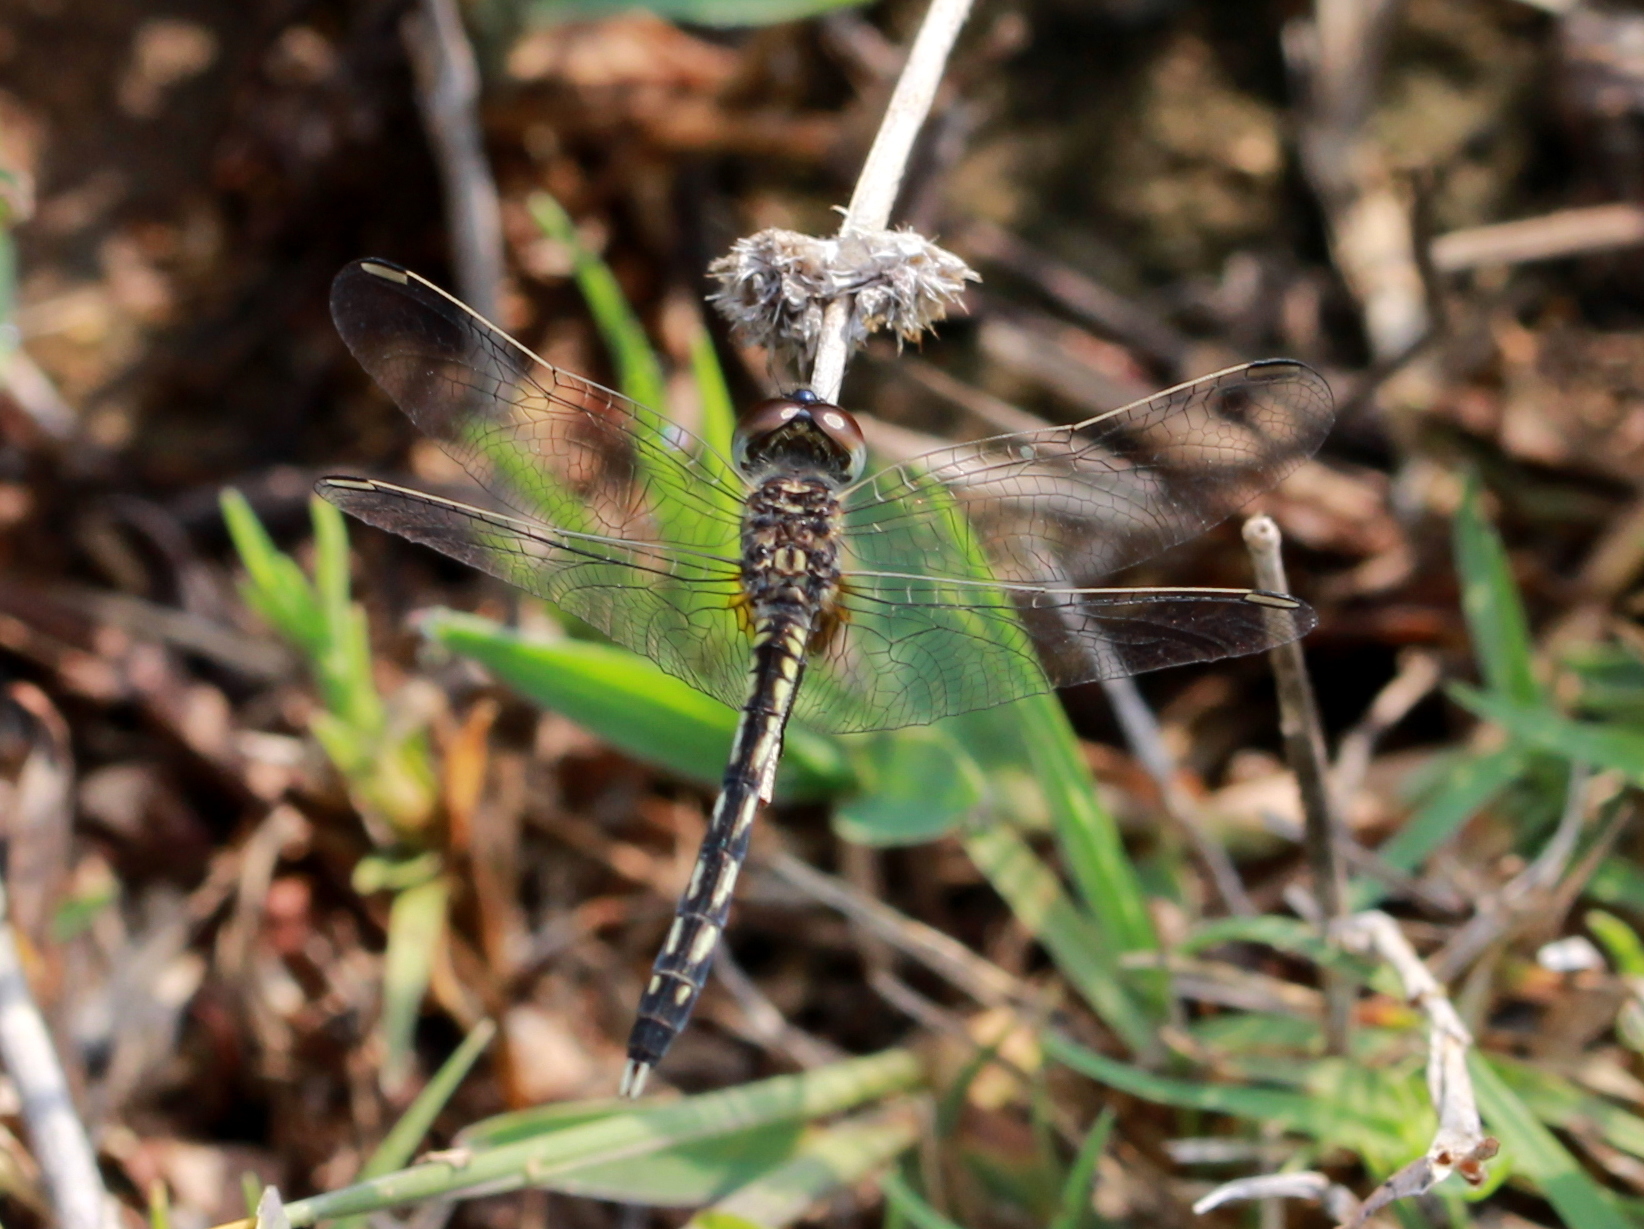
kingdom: Animalia
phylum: Arthropoda
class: Insecta
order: Odonata
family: Libellulidae
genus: Indothemis
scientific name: Indothemis carnatica
